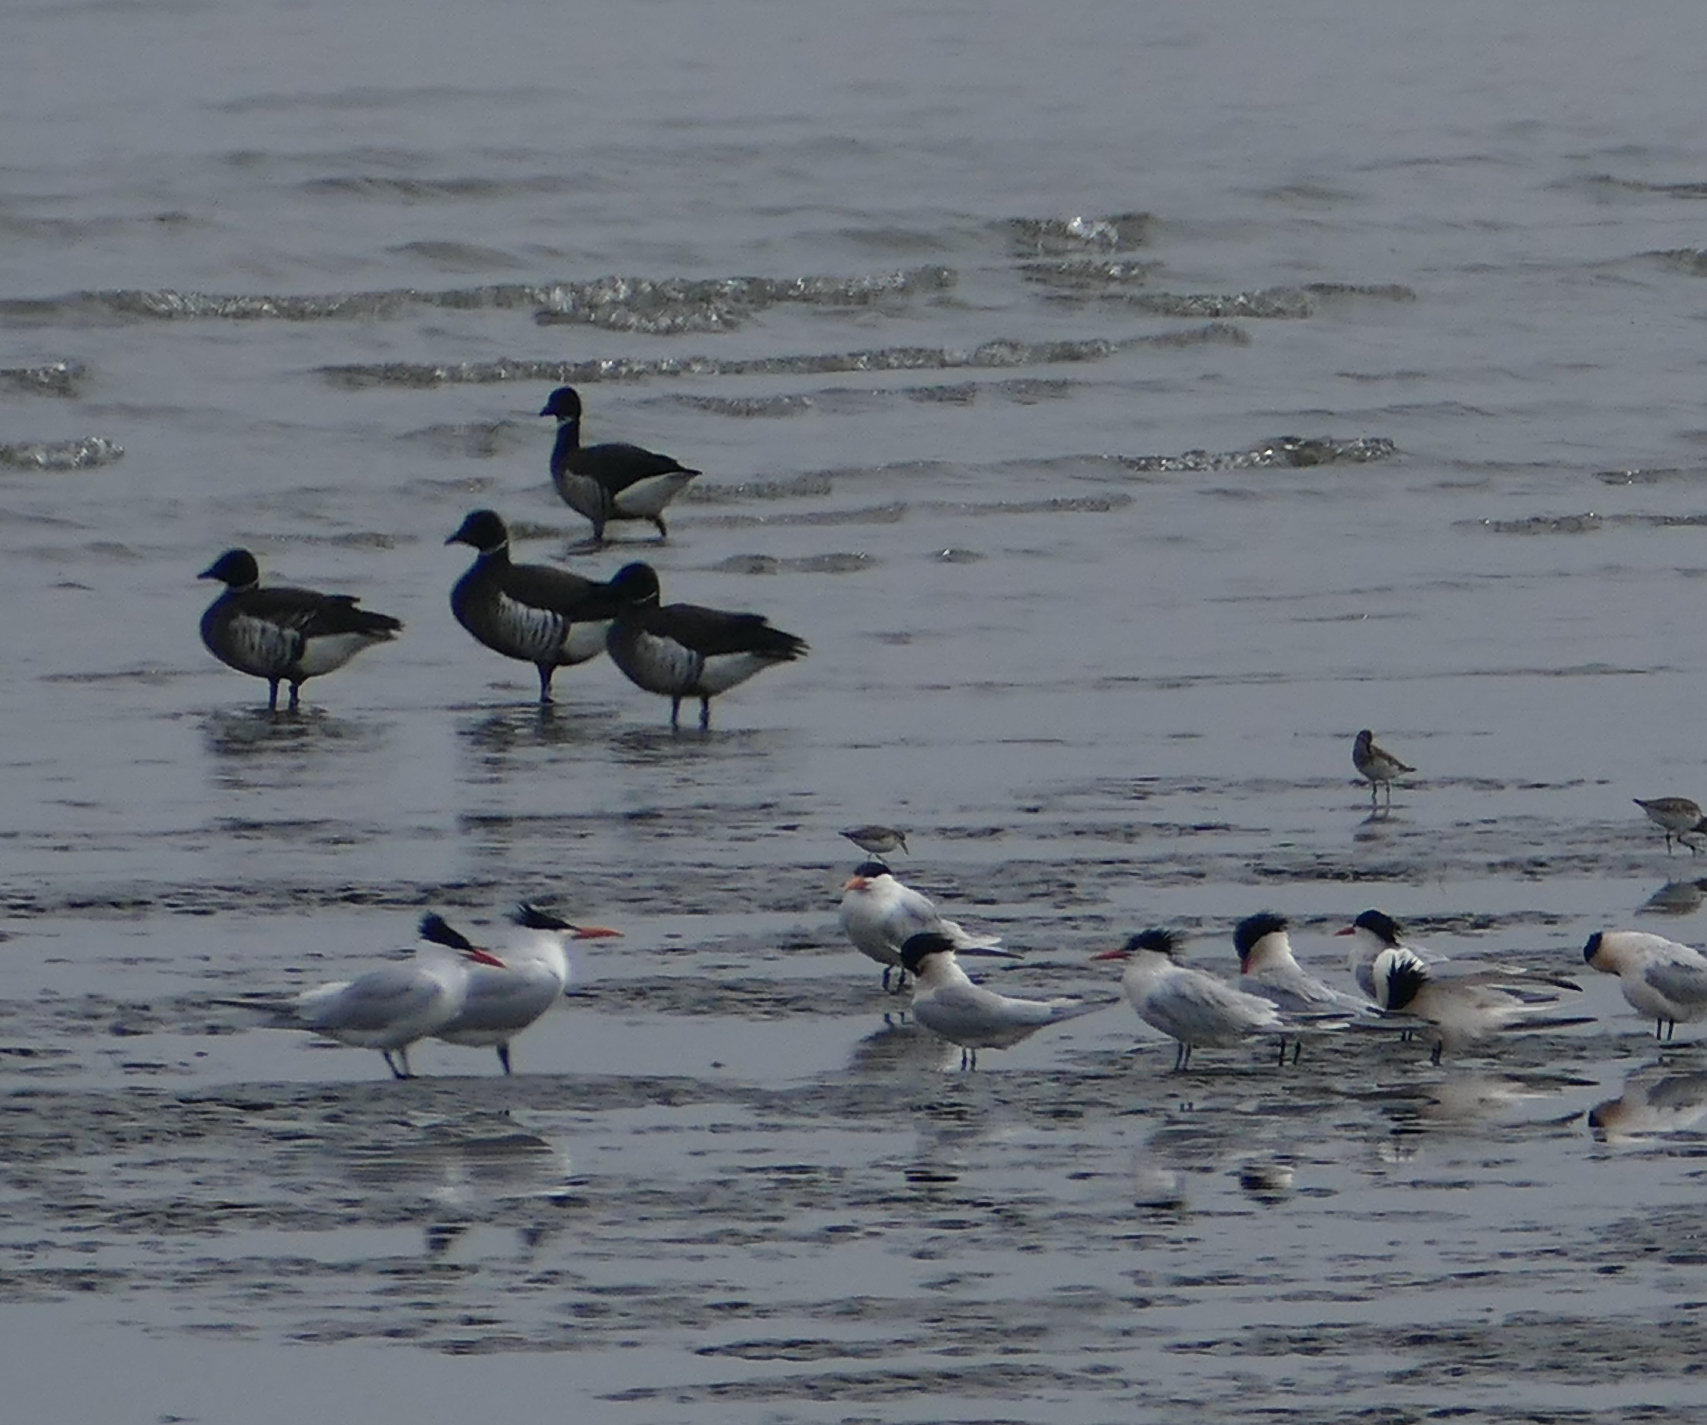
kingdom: Animalia
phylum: Chordata
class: Aves
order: Anseriformes
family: Anatidae
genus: Branta
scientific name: Branta bernicla
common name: Brant goose
